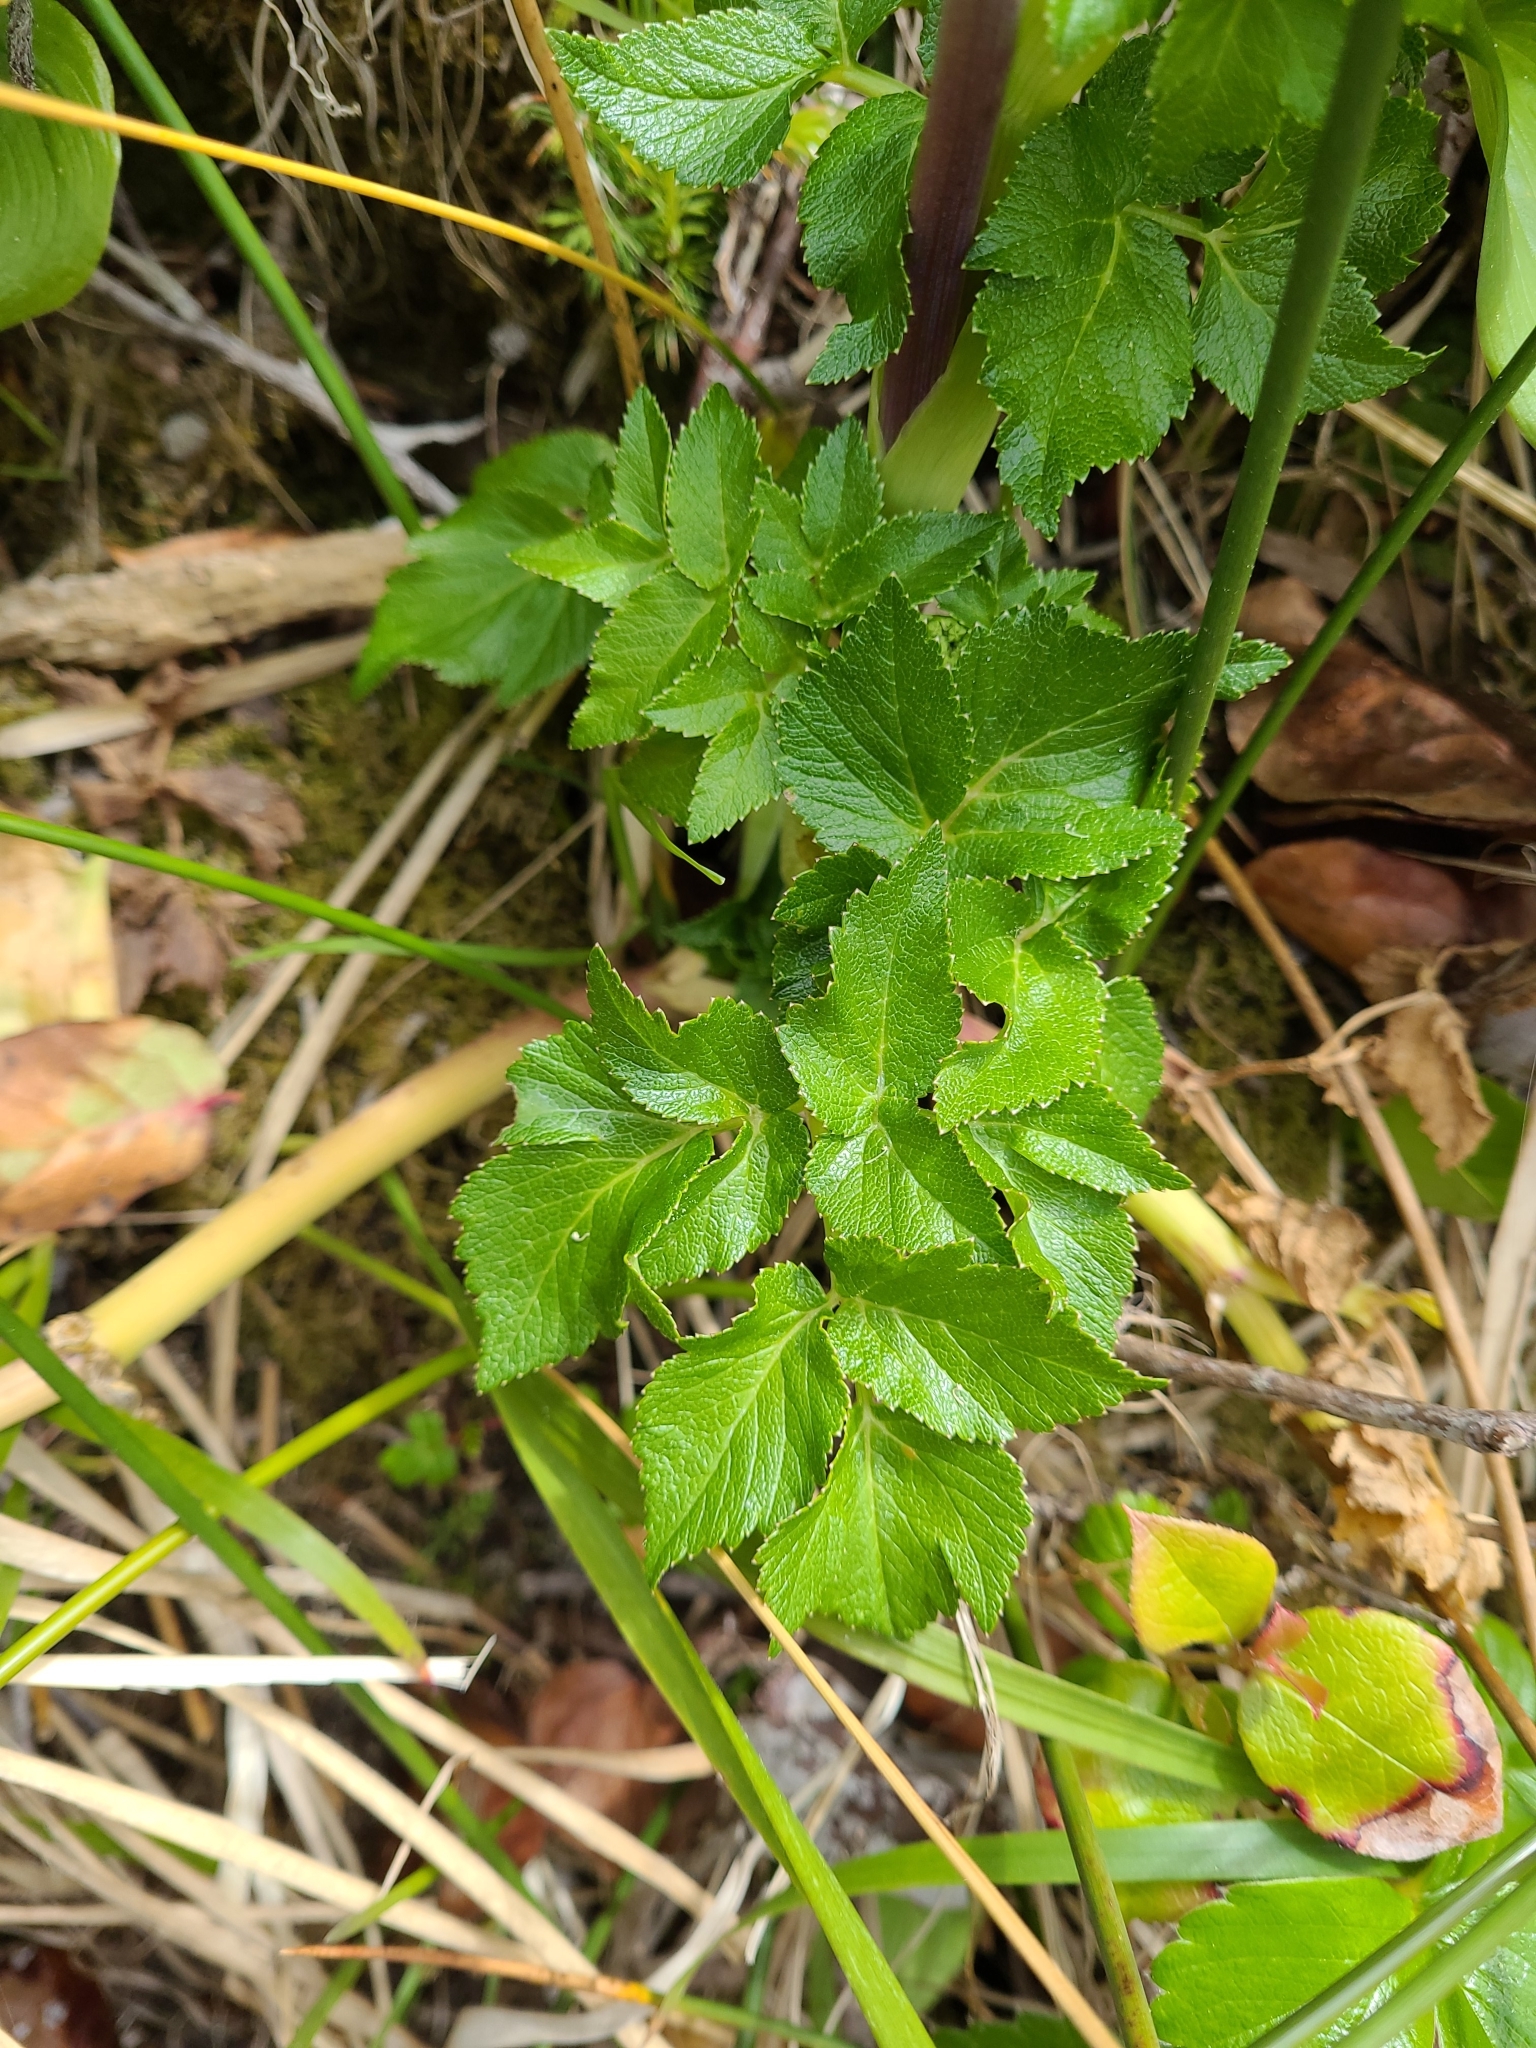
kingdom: Plantae
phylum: Tracheophyta
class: Magnoliopsida
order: Apiales
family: Apiaceae
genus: Angelica
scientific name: Angelica lucida
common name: Seabeach angelica
